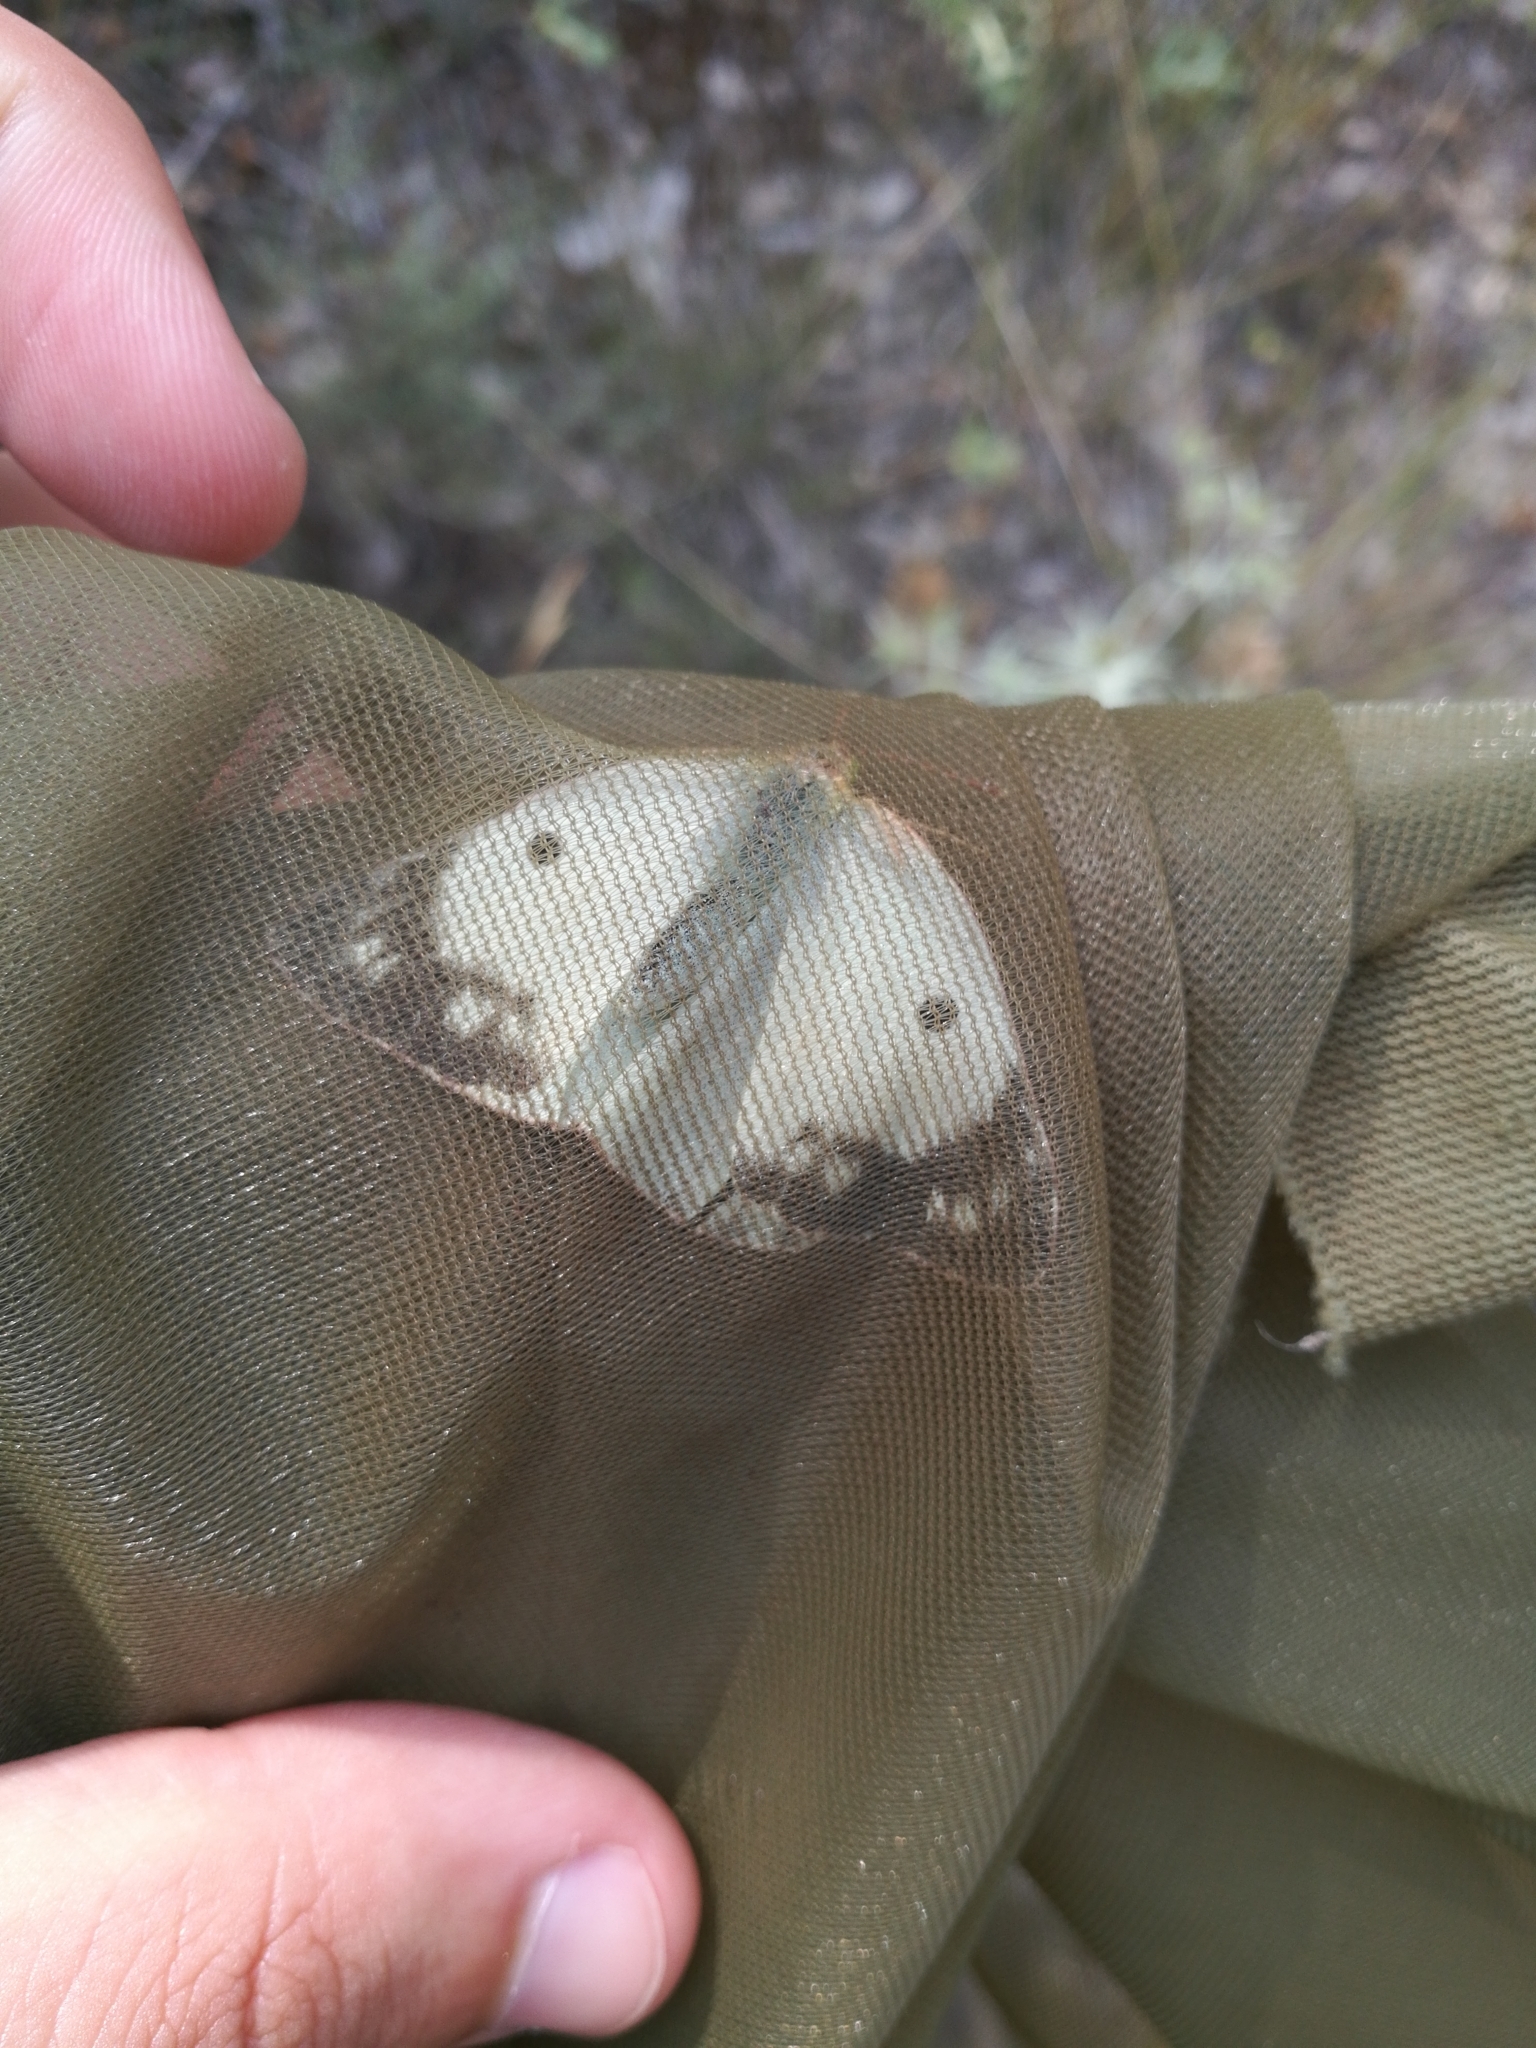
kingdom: Animalia
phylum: Arthropoda
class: Insecta
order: Lepidoptera
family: Pieridae
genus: Colias
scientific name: Colias croceus
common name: Clouded yellow
